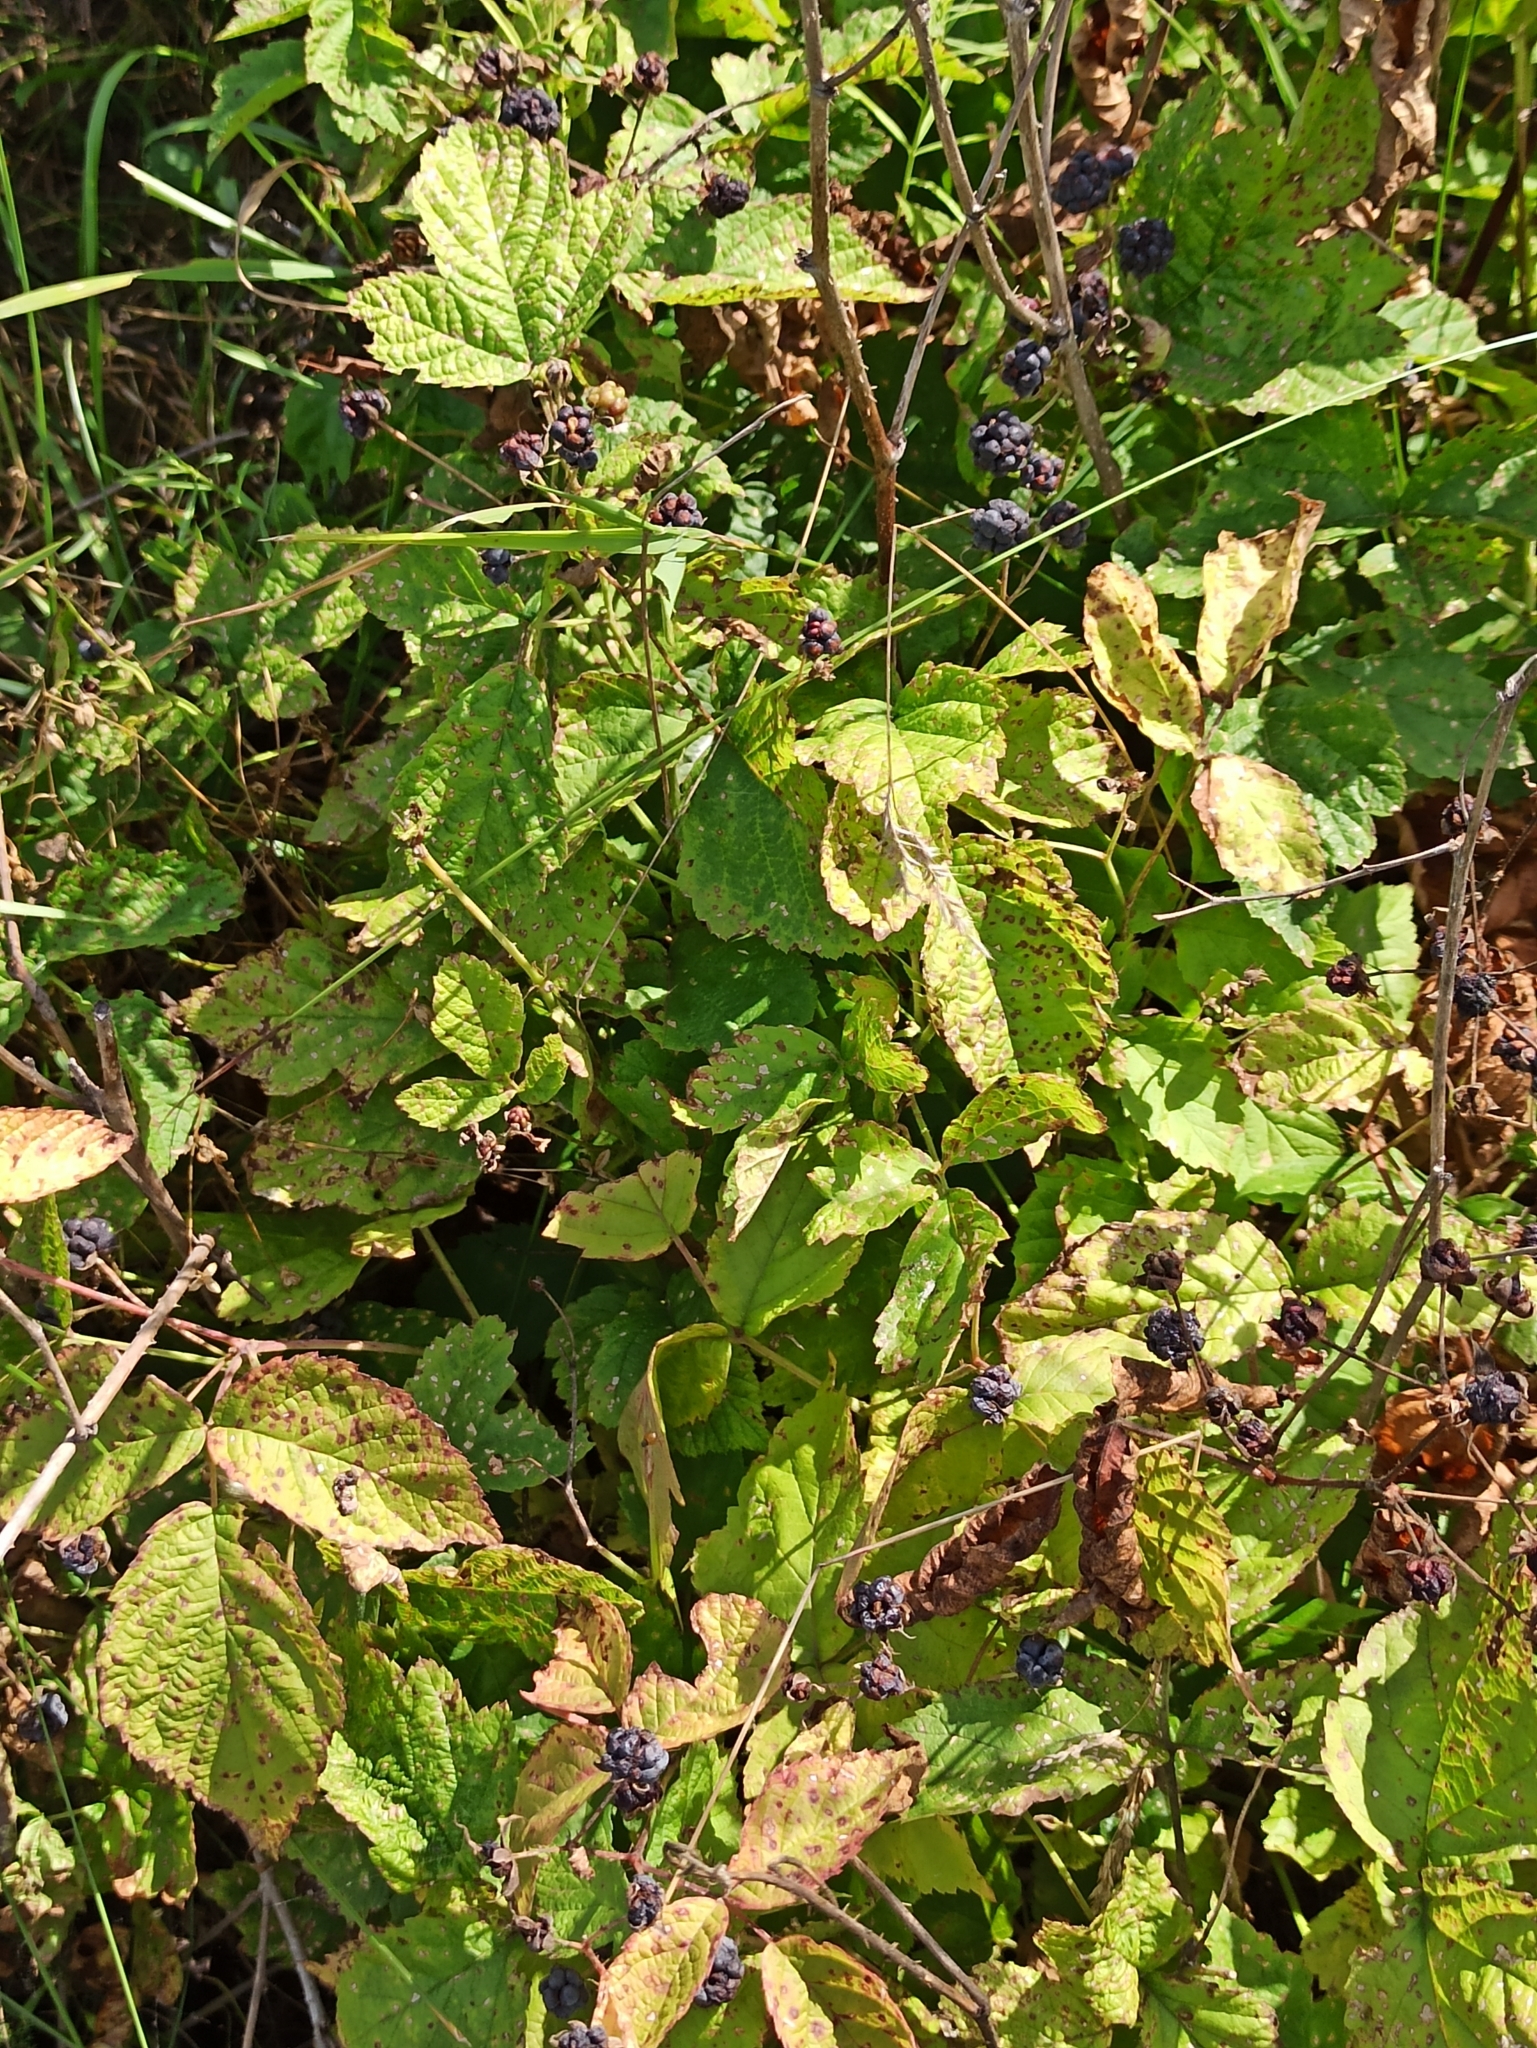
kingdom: Plantae
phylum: Tracheophyta
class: Magnoliopsida
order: Rosales
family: Rosaceae
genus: Rubus
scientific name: Rubus caesius
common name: Dewberry
